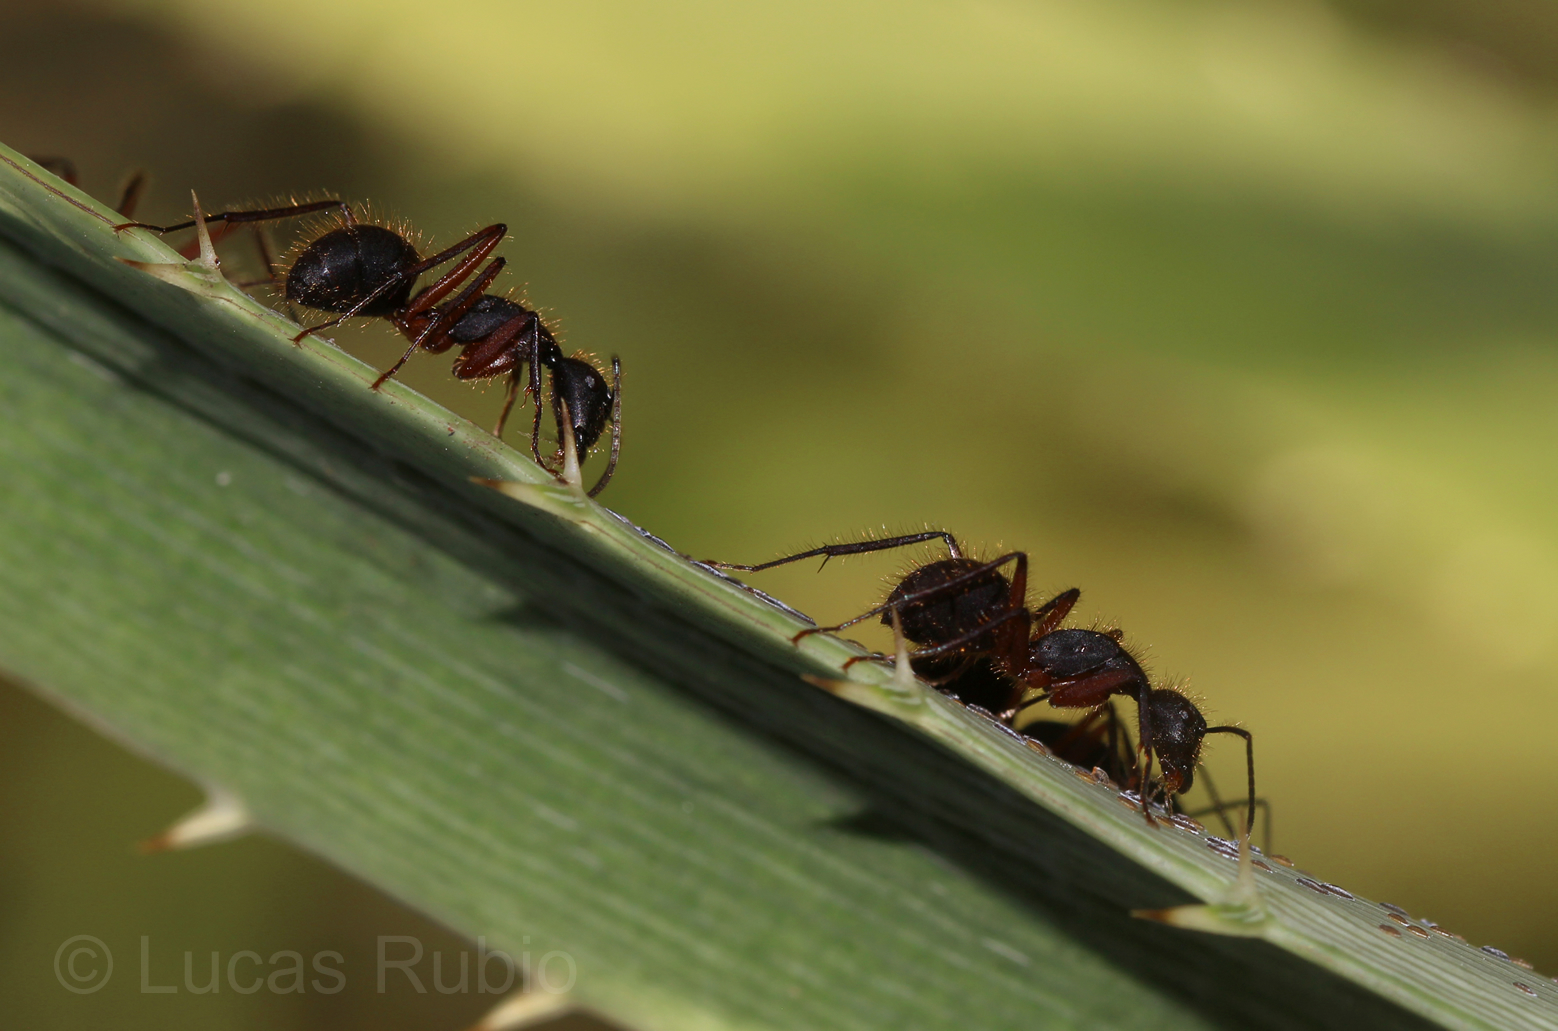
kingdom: Animalia
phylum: Arthropoda
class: Insecta
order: Hymenoptera
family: Formicidae
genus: Camponotus
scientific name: Camponotus rufipes
